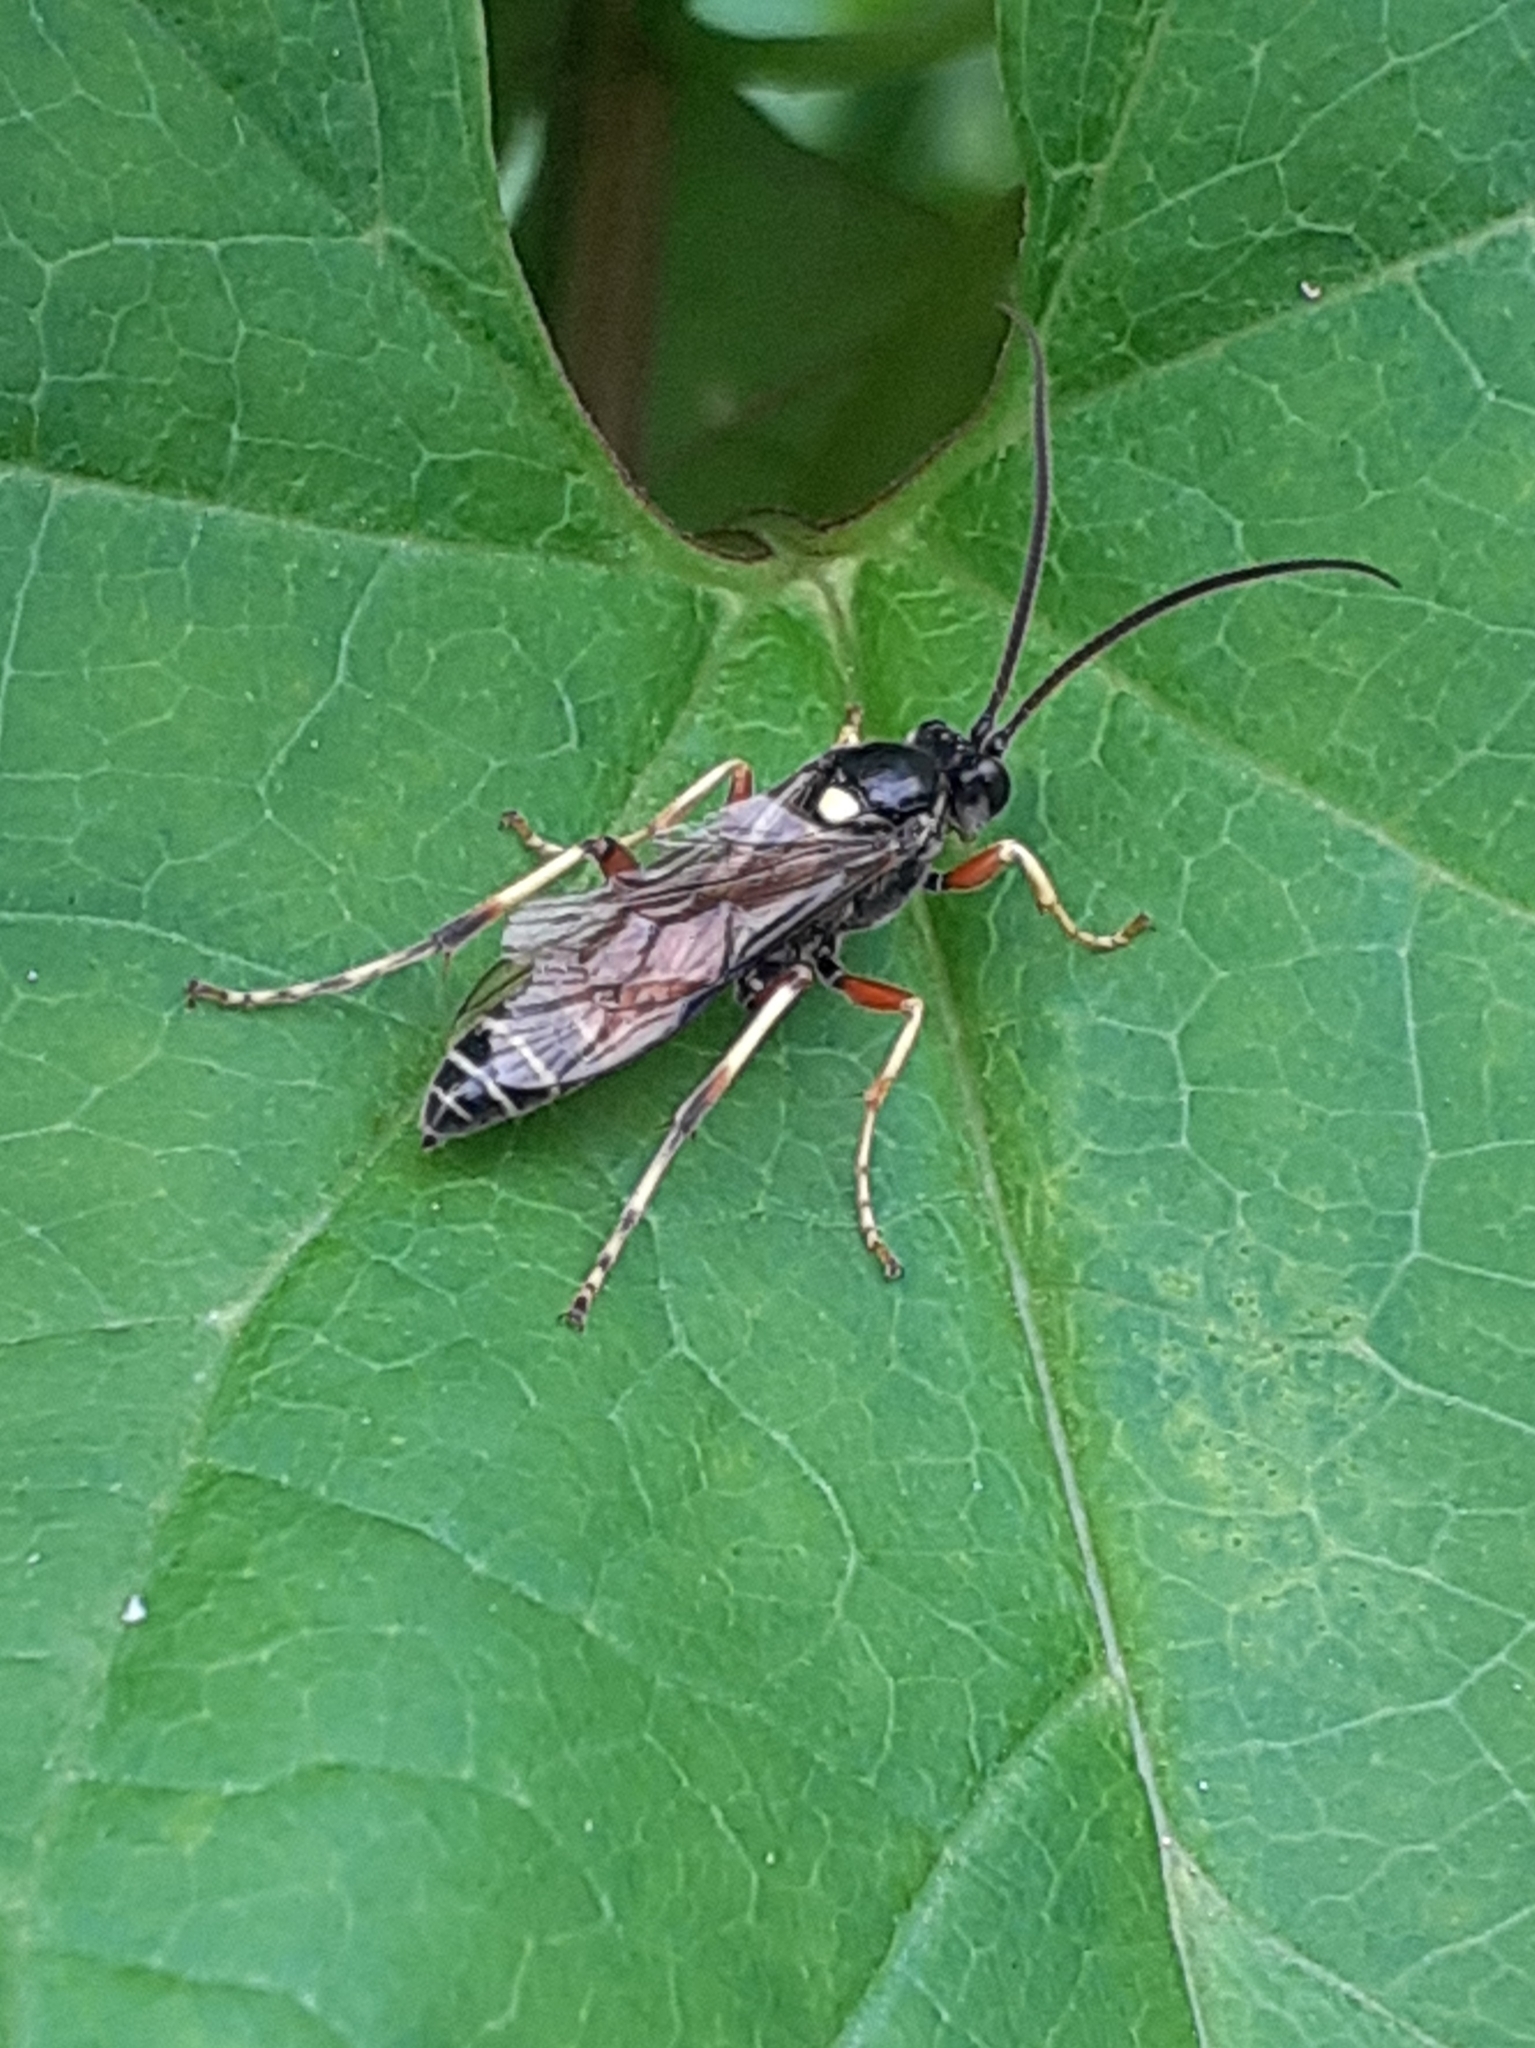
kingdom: Animalia
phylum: Arthropoda
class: Insecta
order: Hymenoptera
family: Ichneumonidae
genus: Ctenichneumon
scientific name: Ctenichneumon panzeri
